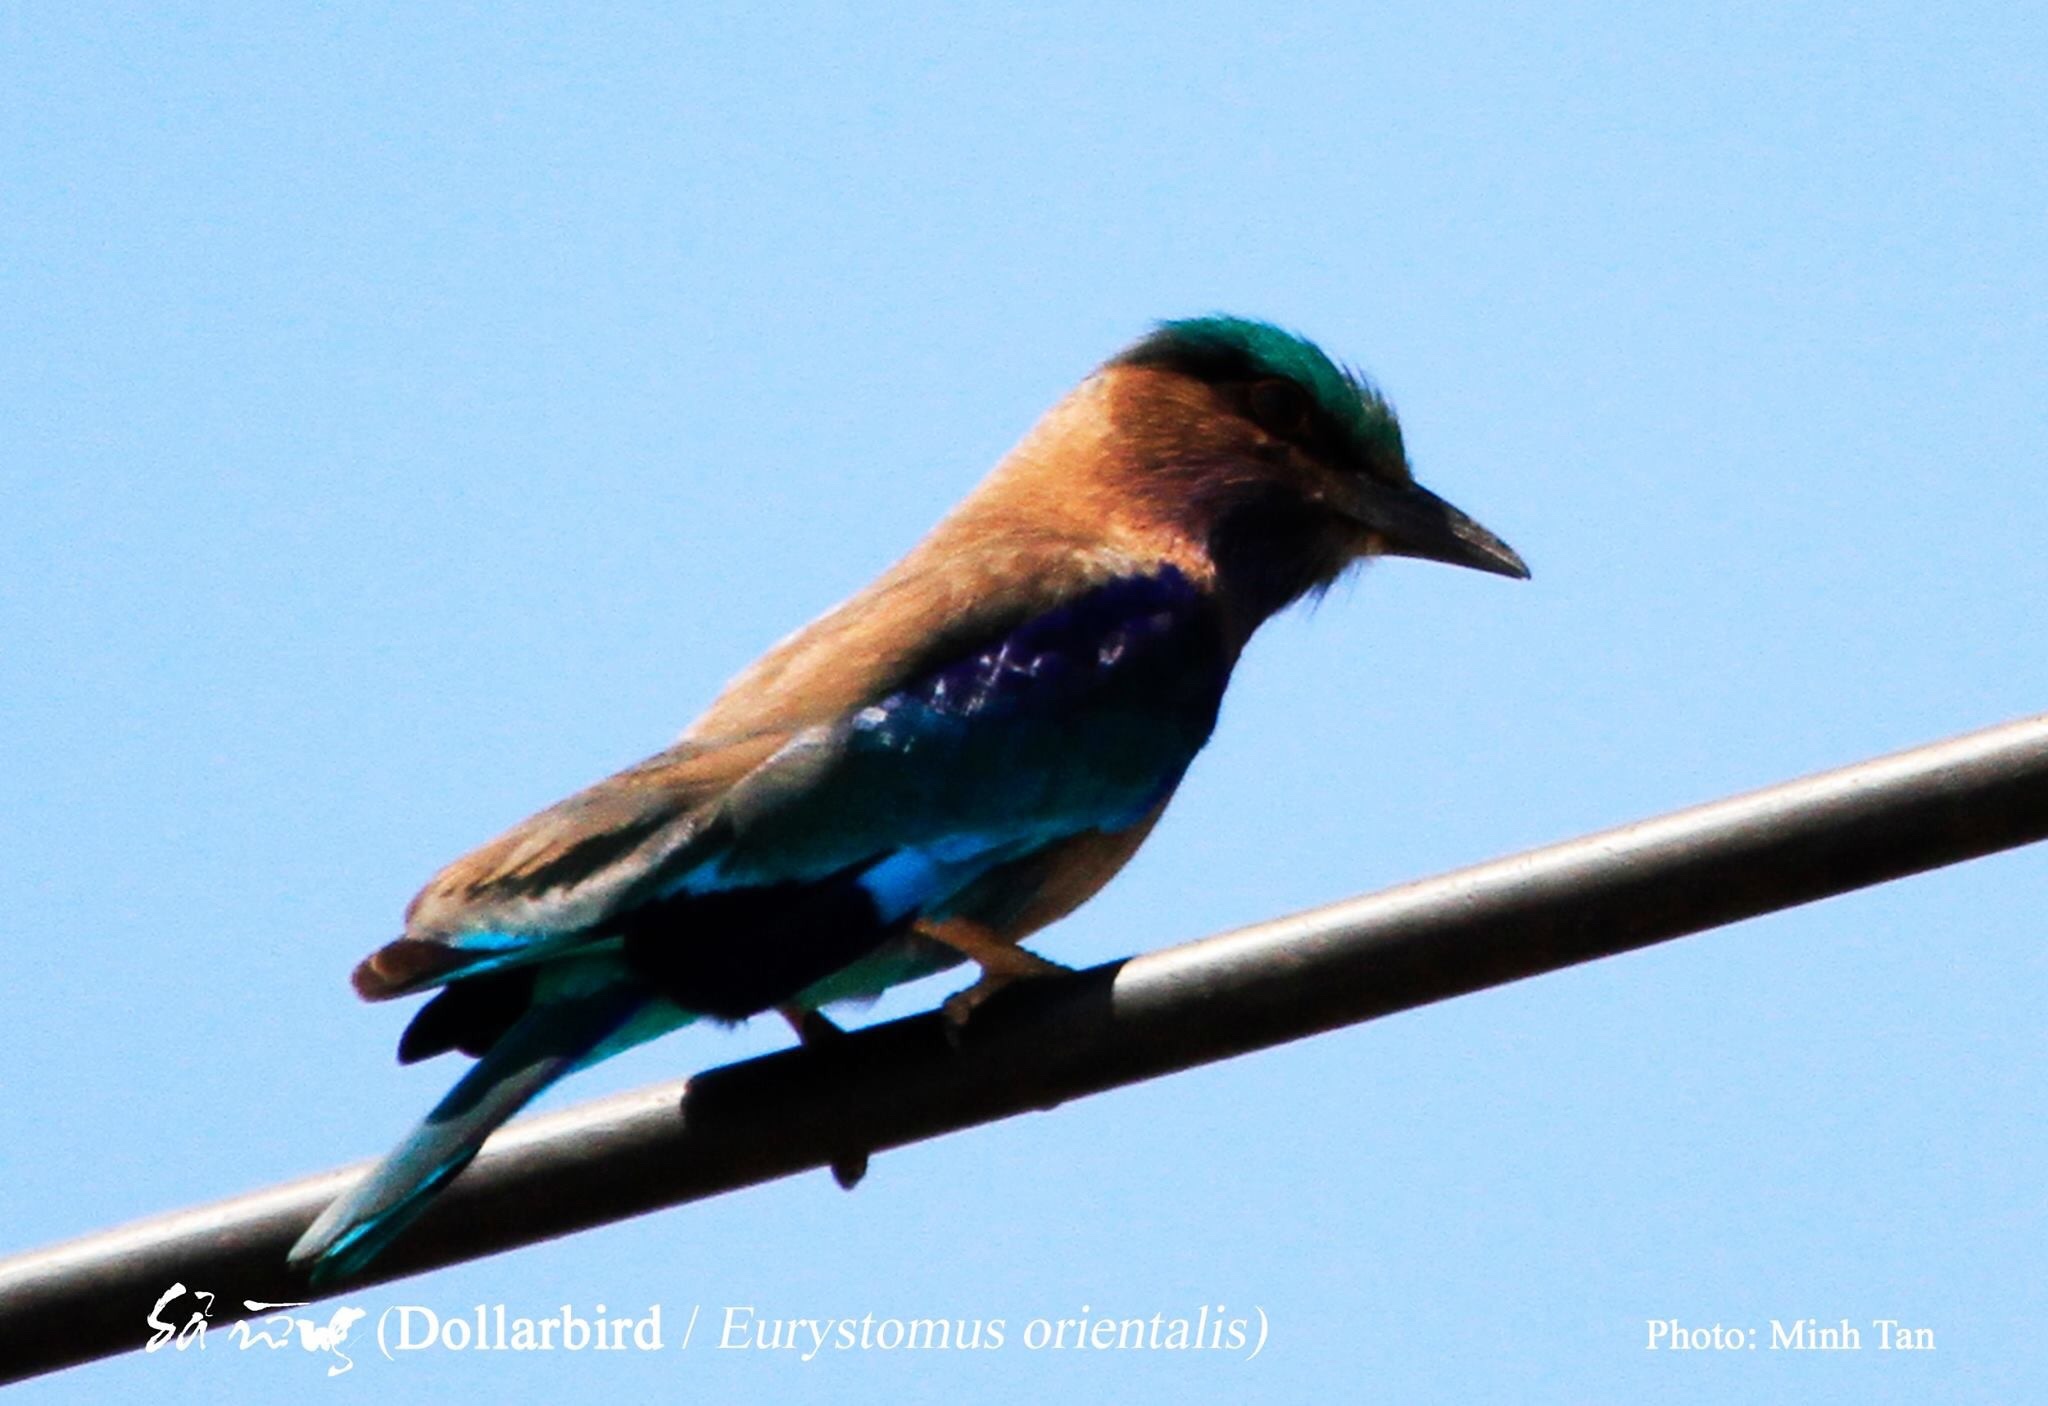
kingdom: Animalia
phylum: Chordata
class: Aves
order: Coraciiformes
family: Coraciidae
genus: Coracias
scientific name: Coracias affinis
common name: Indochinese roller
